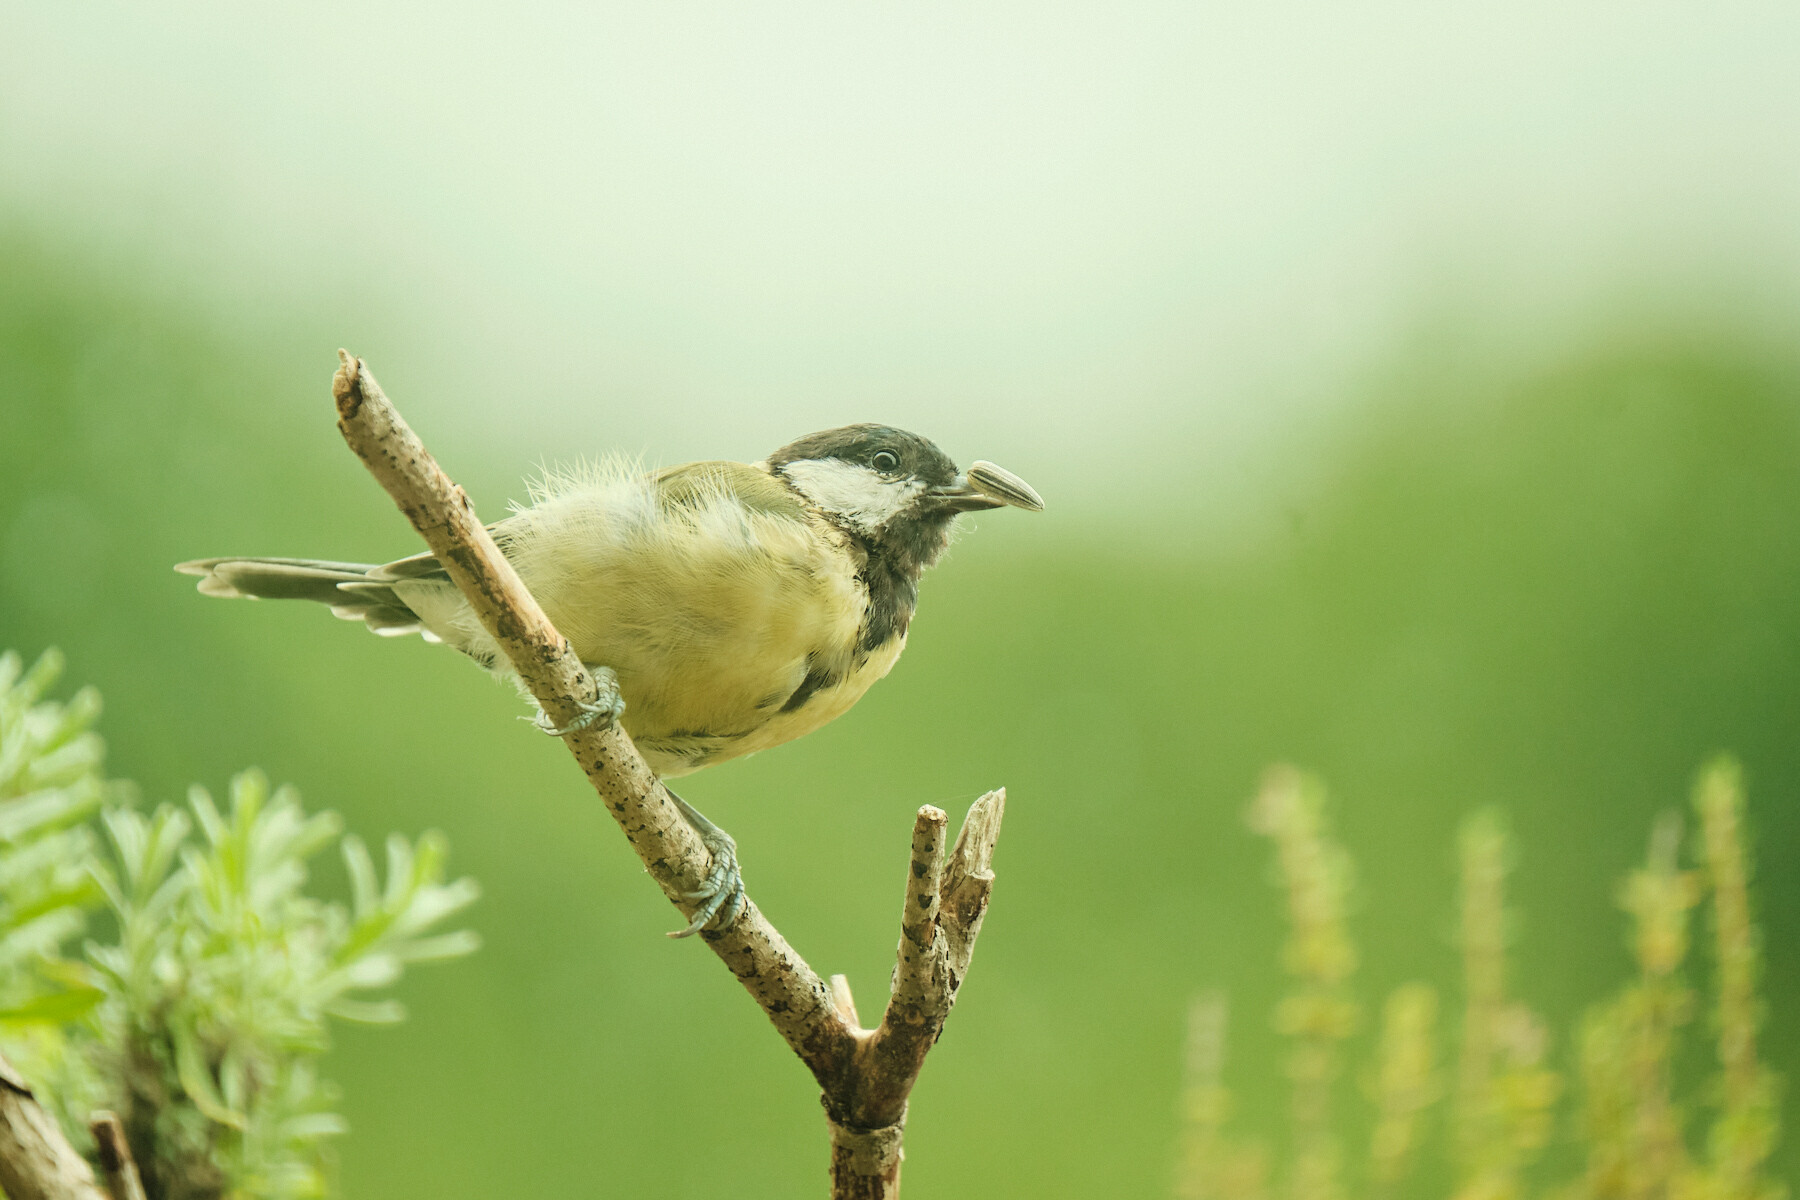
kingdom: Animalia
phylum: Chordata
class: Aves
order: Passeriformes
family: Paridae
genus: Parus
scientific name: Parus major
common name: Great tit
